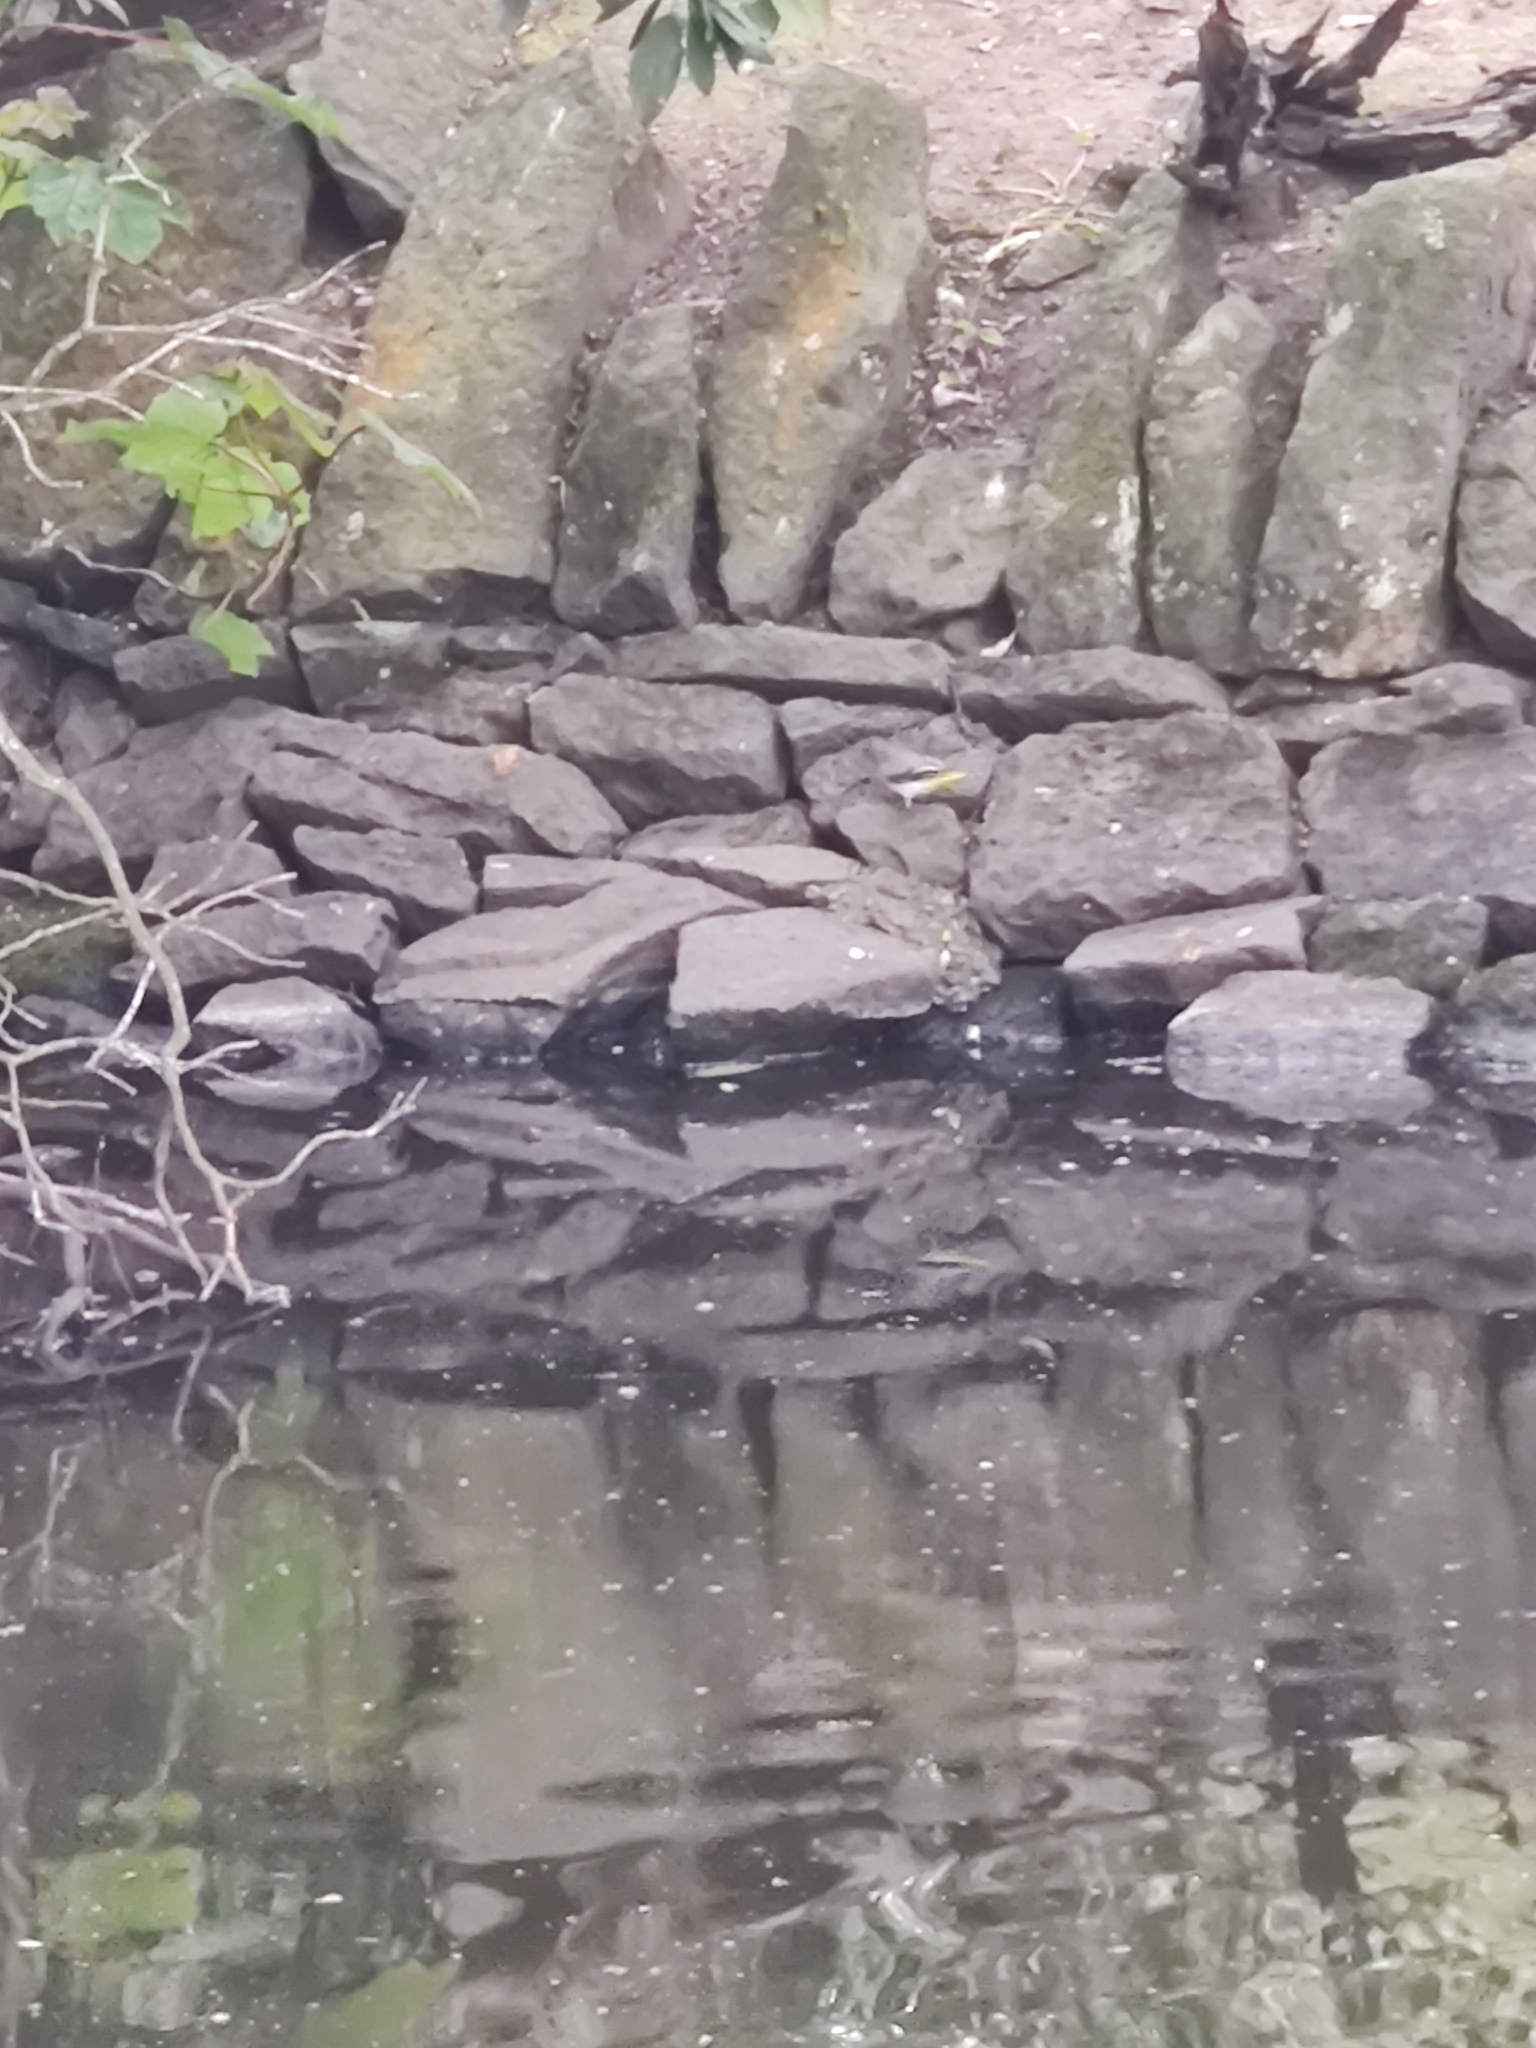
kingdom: Animalia
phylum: Chordata
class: Aves
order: Passeriformes
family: Motacillidae
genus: Motacilla
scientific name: Motacilla cinerea
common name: Grey wagtail
